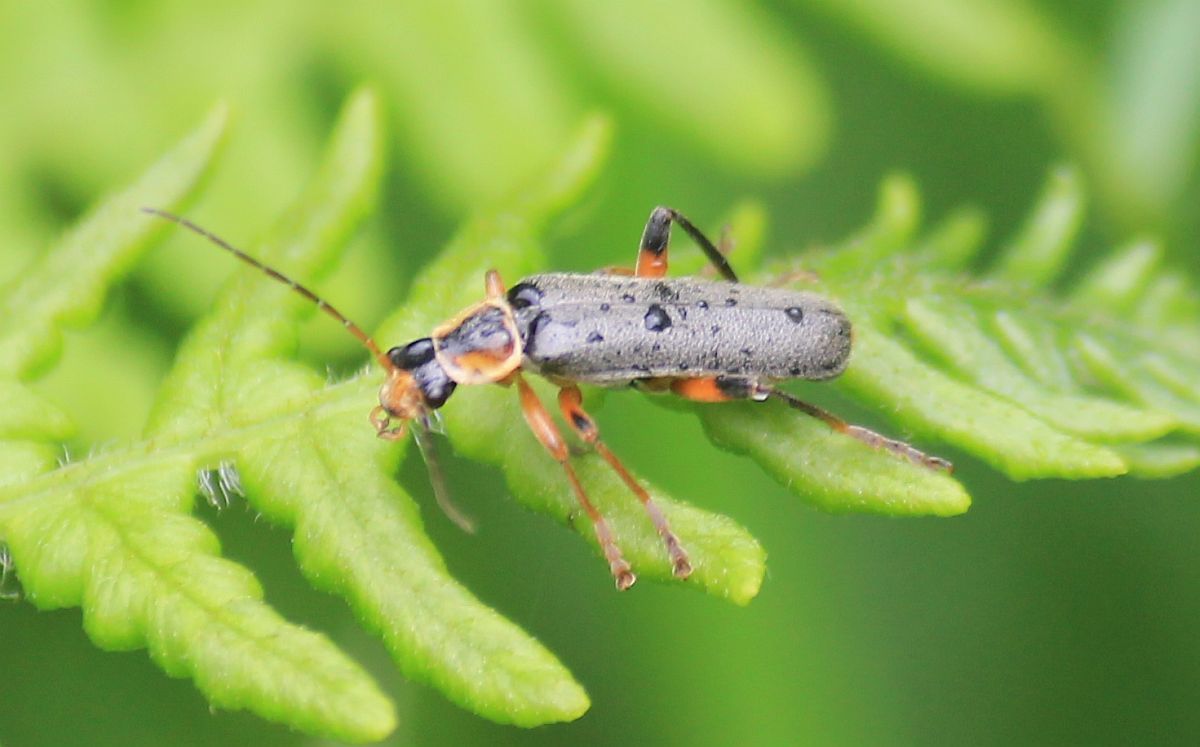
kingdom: Animalia
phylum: Arthropoda
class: Insecta
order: Coleoptera
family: Cantharidae
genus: Cantharis
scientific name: Cantharis nigricans
